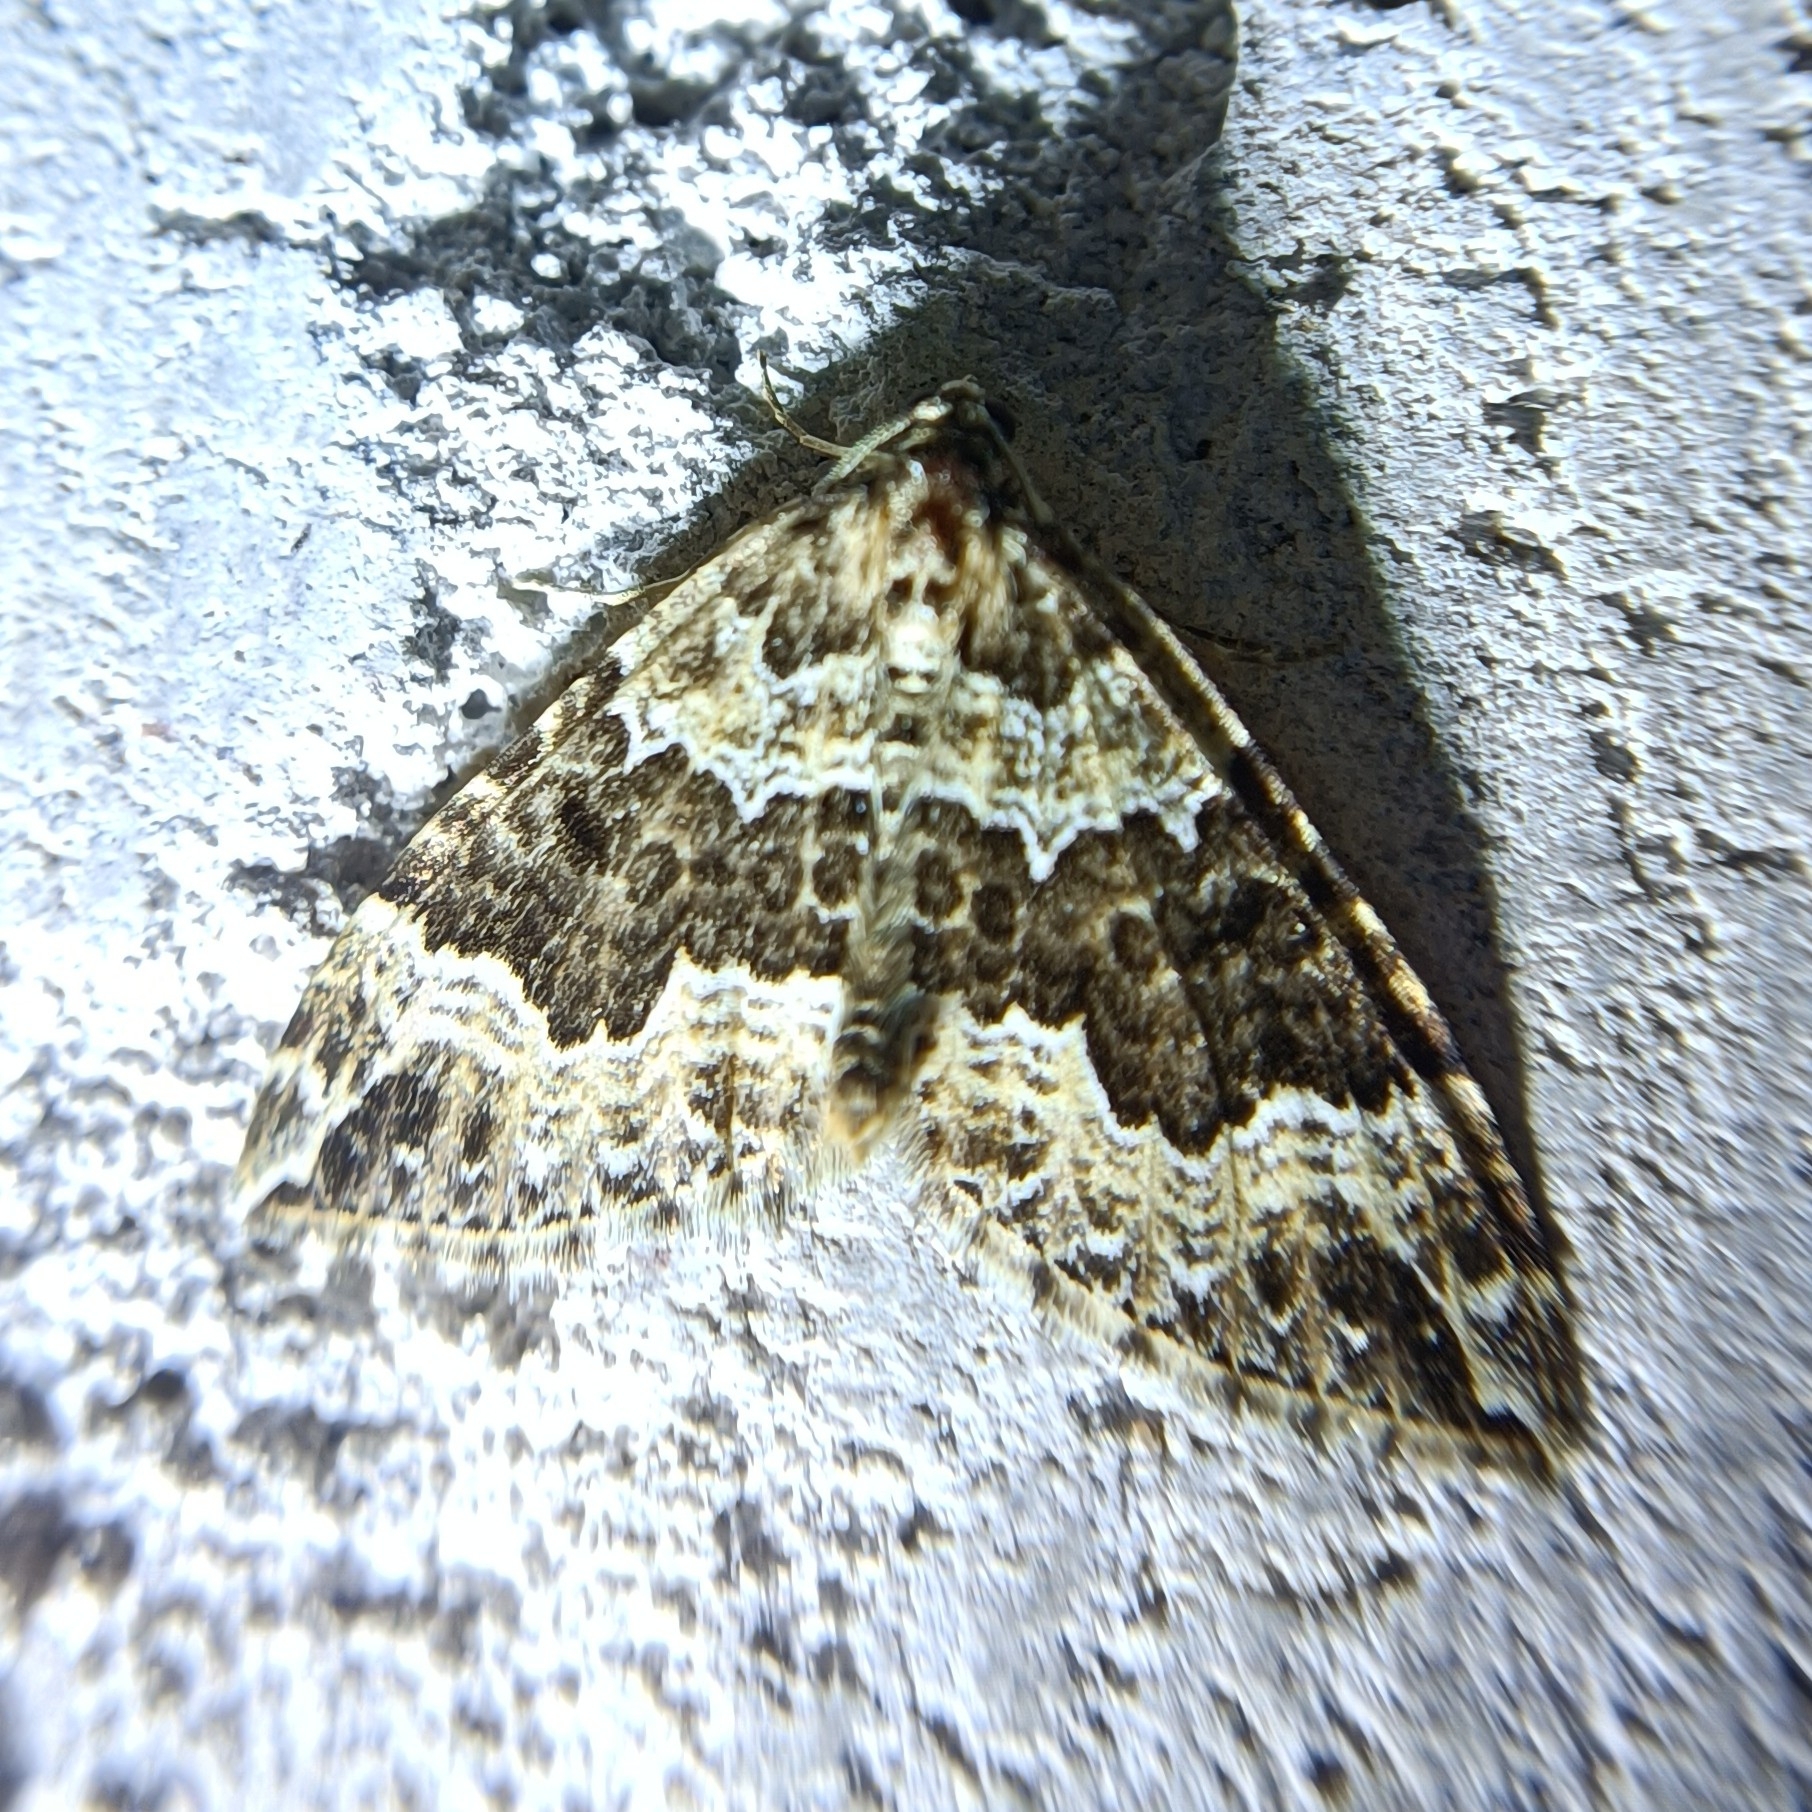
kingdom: Animalia
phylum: Arthropoda
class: Insecta
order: Lepidoptera
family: Geometridae
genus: Lampropteryx
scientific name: Lampropteryx suffumata
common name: Water carpet
